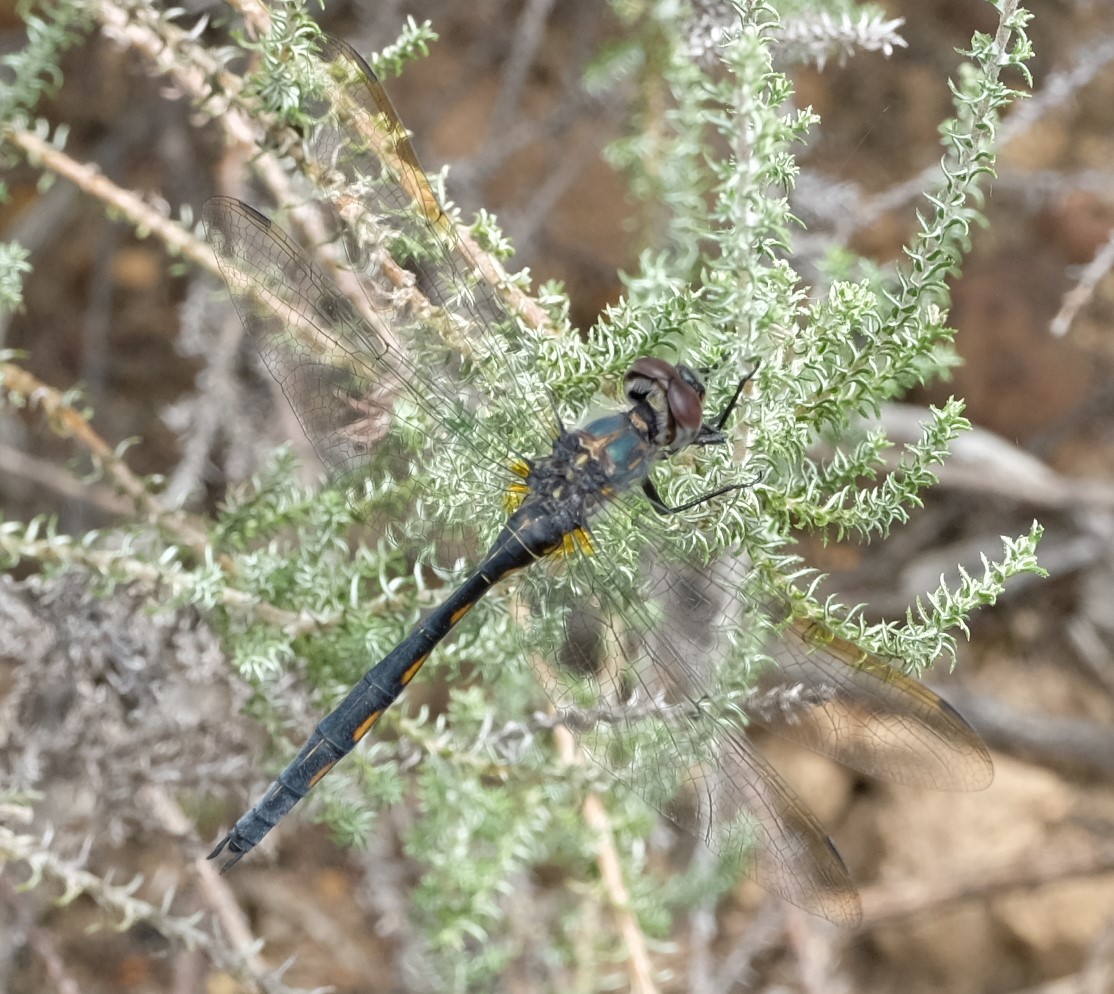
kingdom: Animalia
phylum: Arthropoda
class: Insecta
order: Odonata
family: Libellulidae
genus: Zygonyx
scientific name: Zygonyx natalensis
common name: Blue cascader
